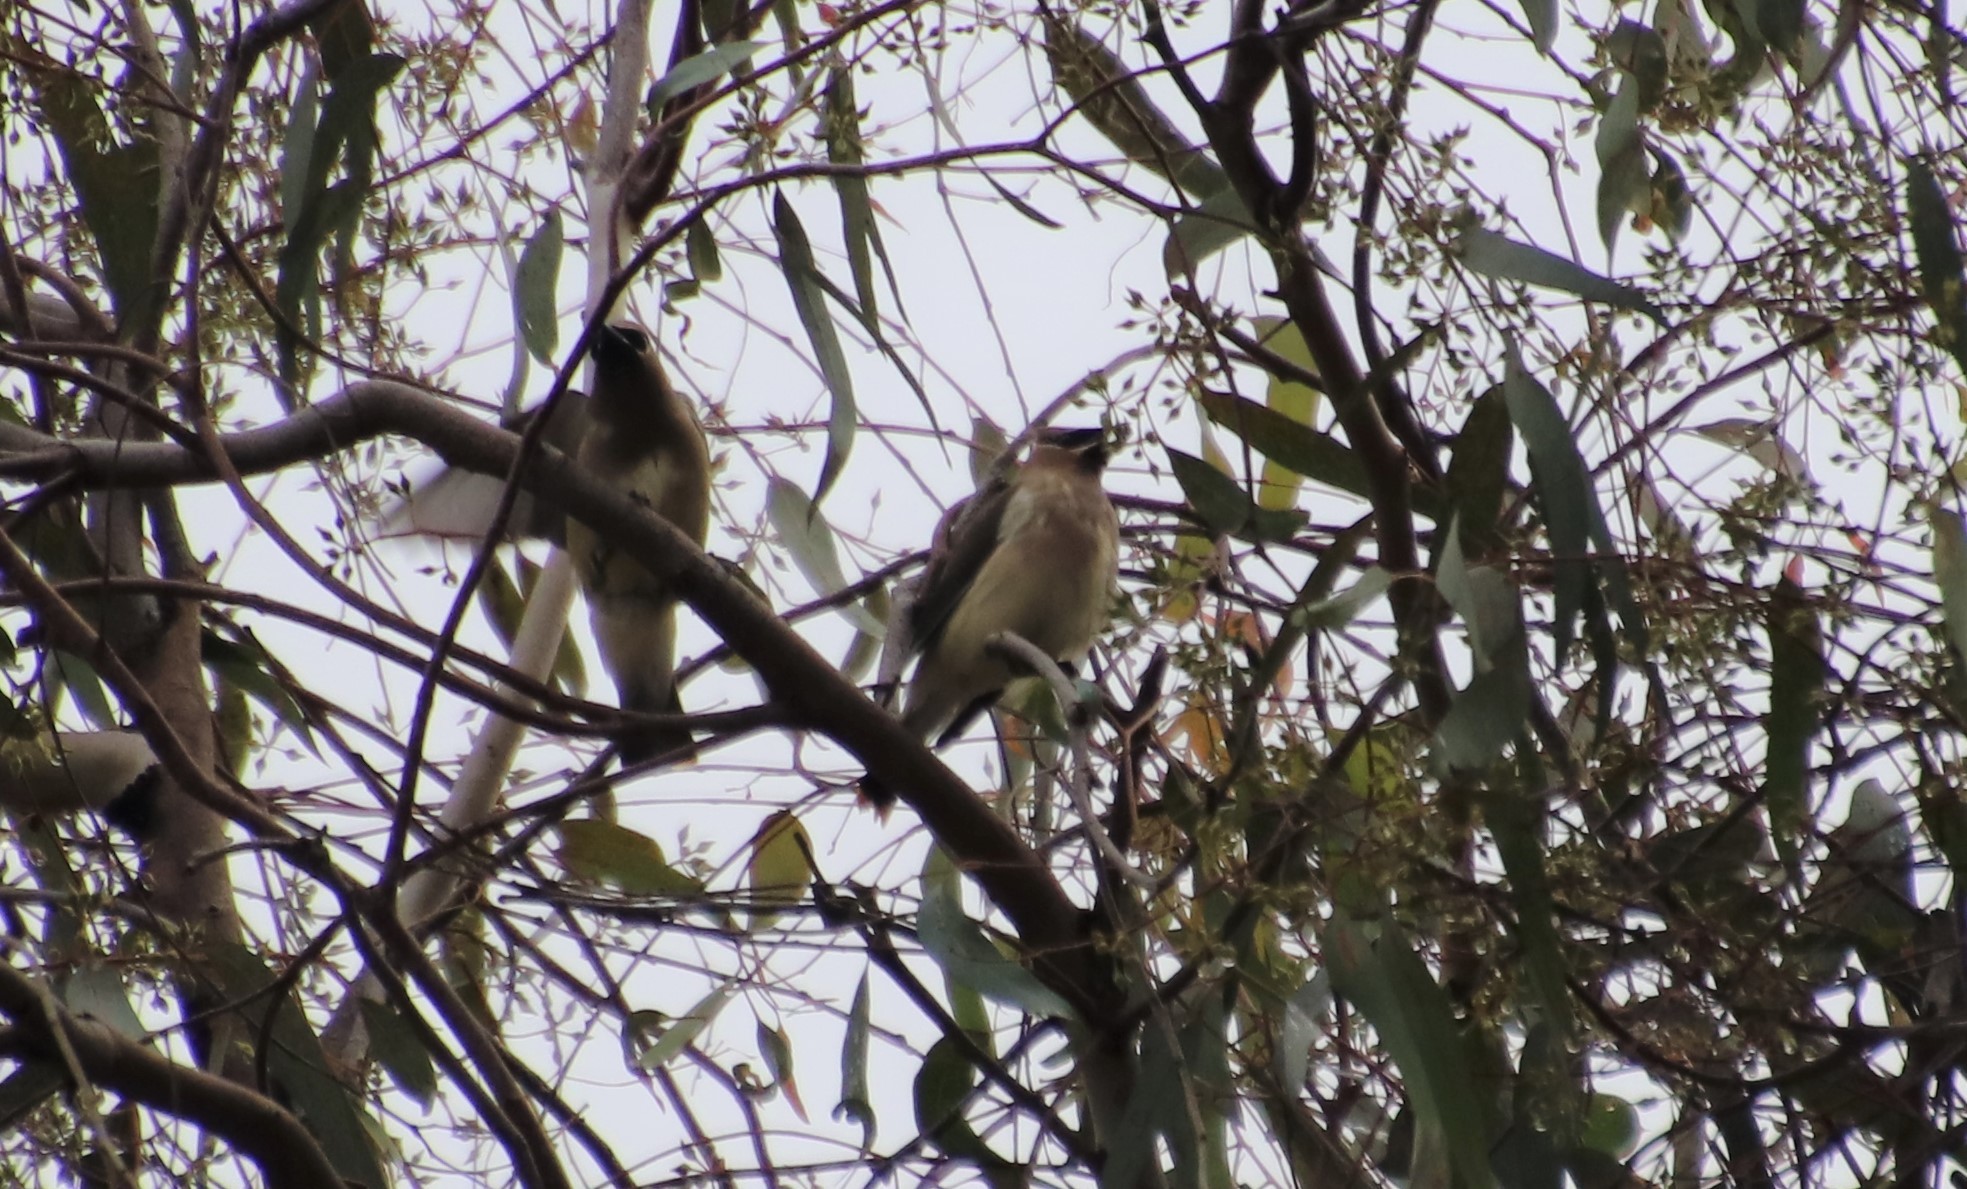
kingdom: Animalia
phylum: Chordata
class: Aves
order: Passeriformes
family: Bombycillidae
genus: Bombycilla
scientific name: Bombycilla cedrorum
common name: Cedar waxwing
